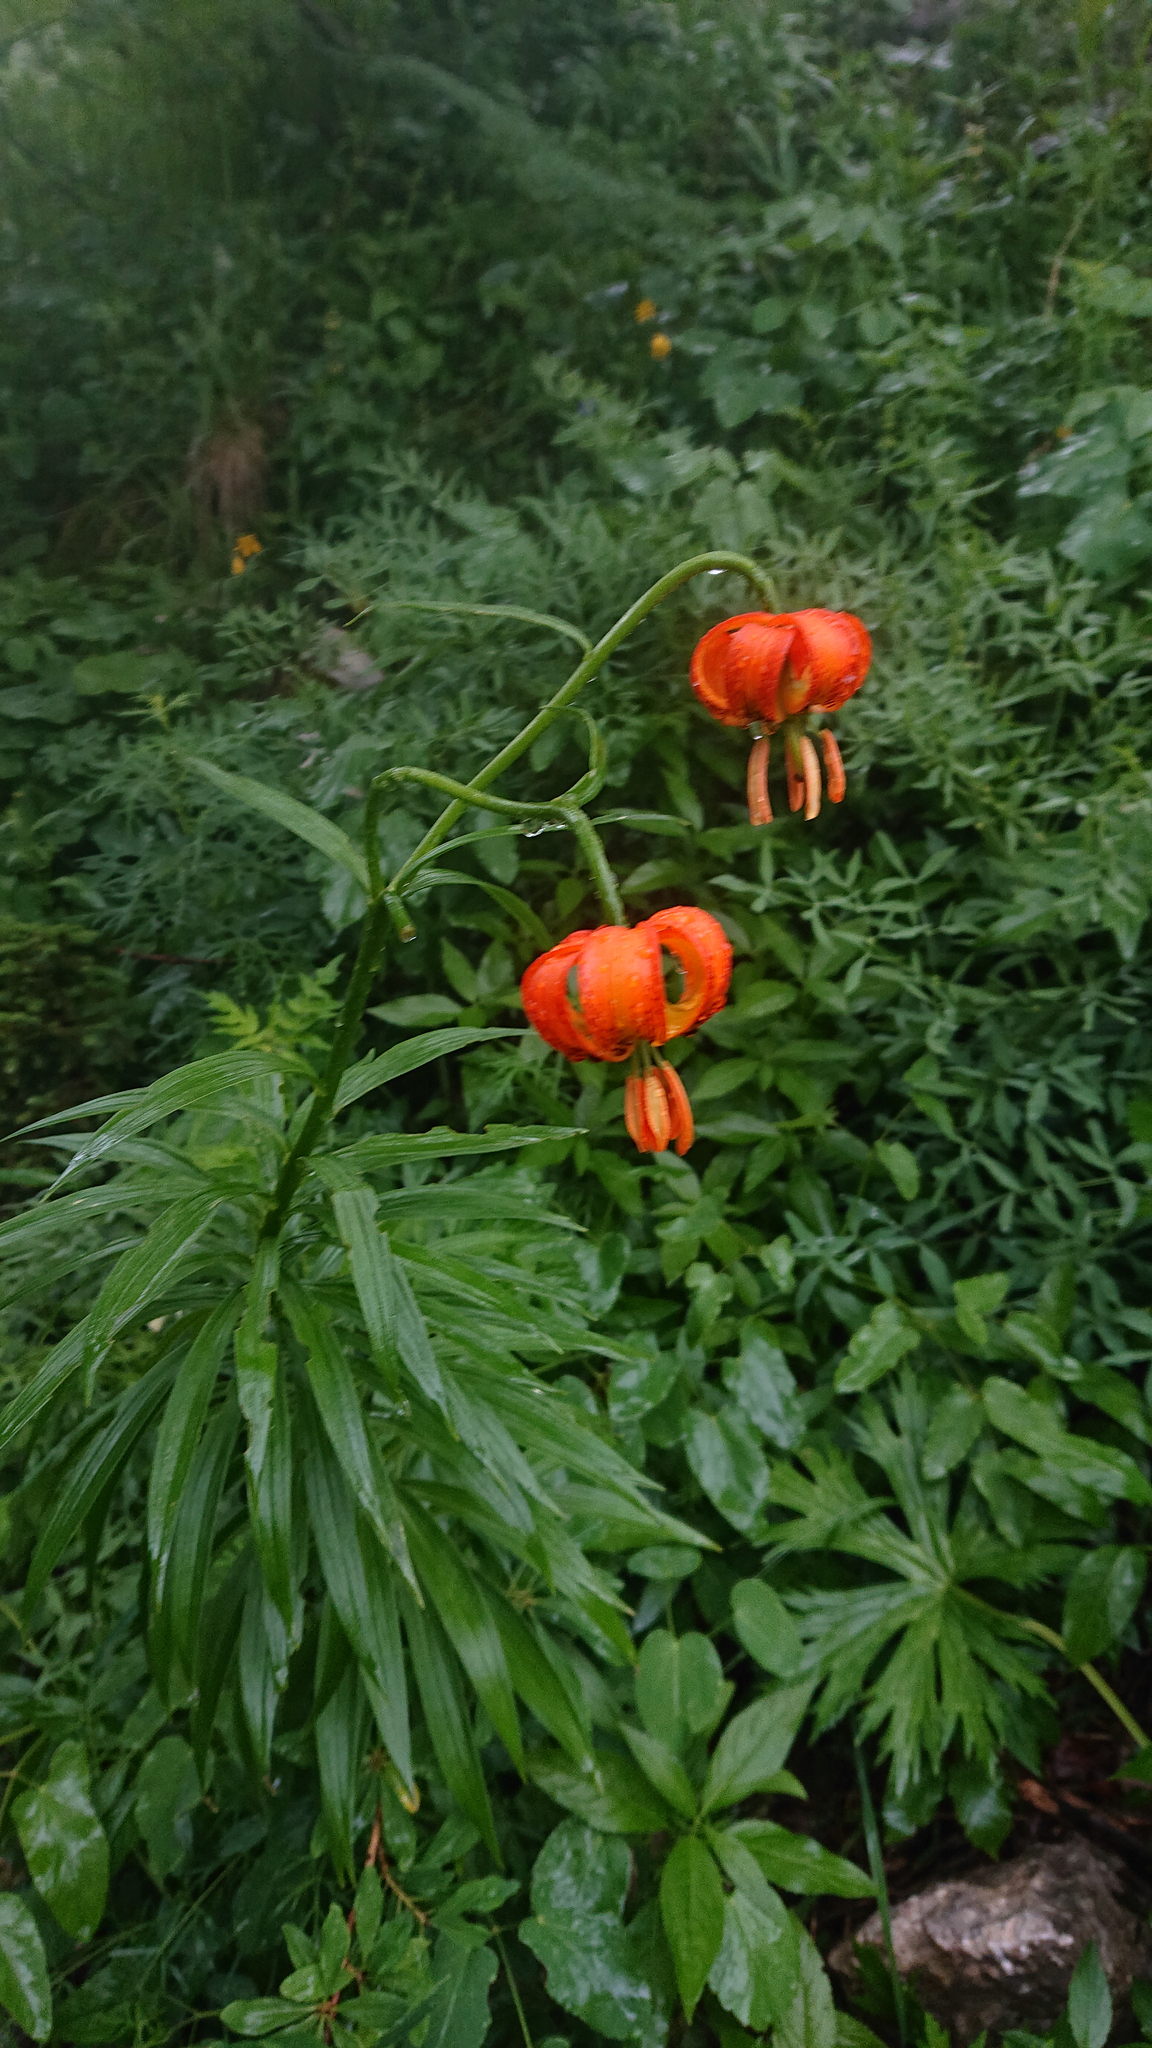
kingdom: Plantae
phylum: Tracheophyta
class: Liliopsida
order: Liliales
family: Liliaceae
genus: Lilium
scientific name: Lilium carniolicum
